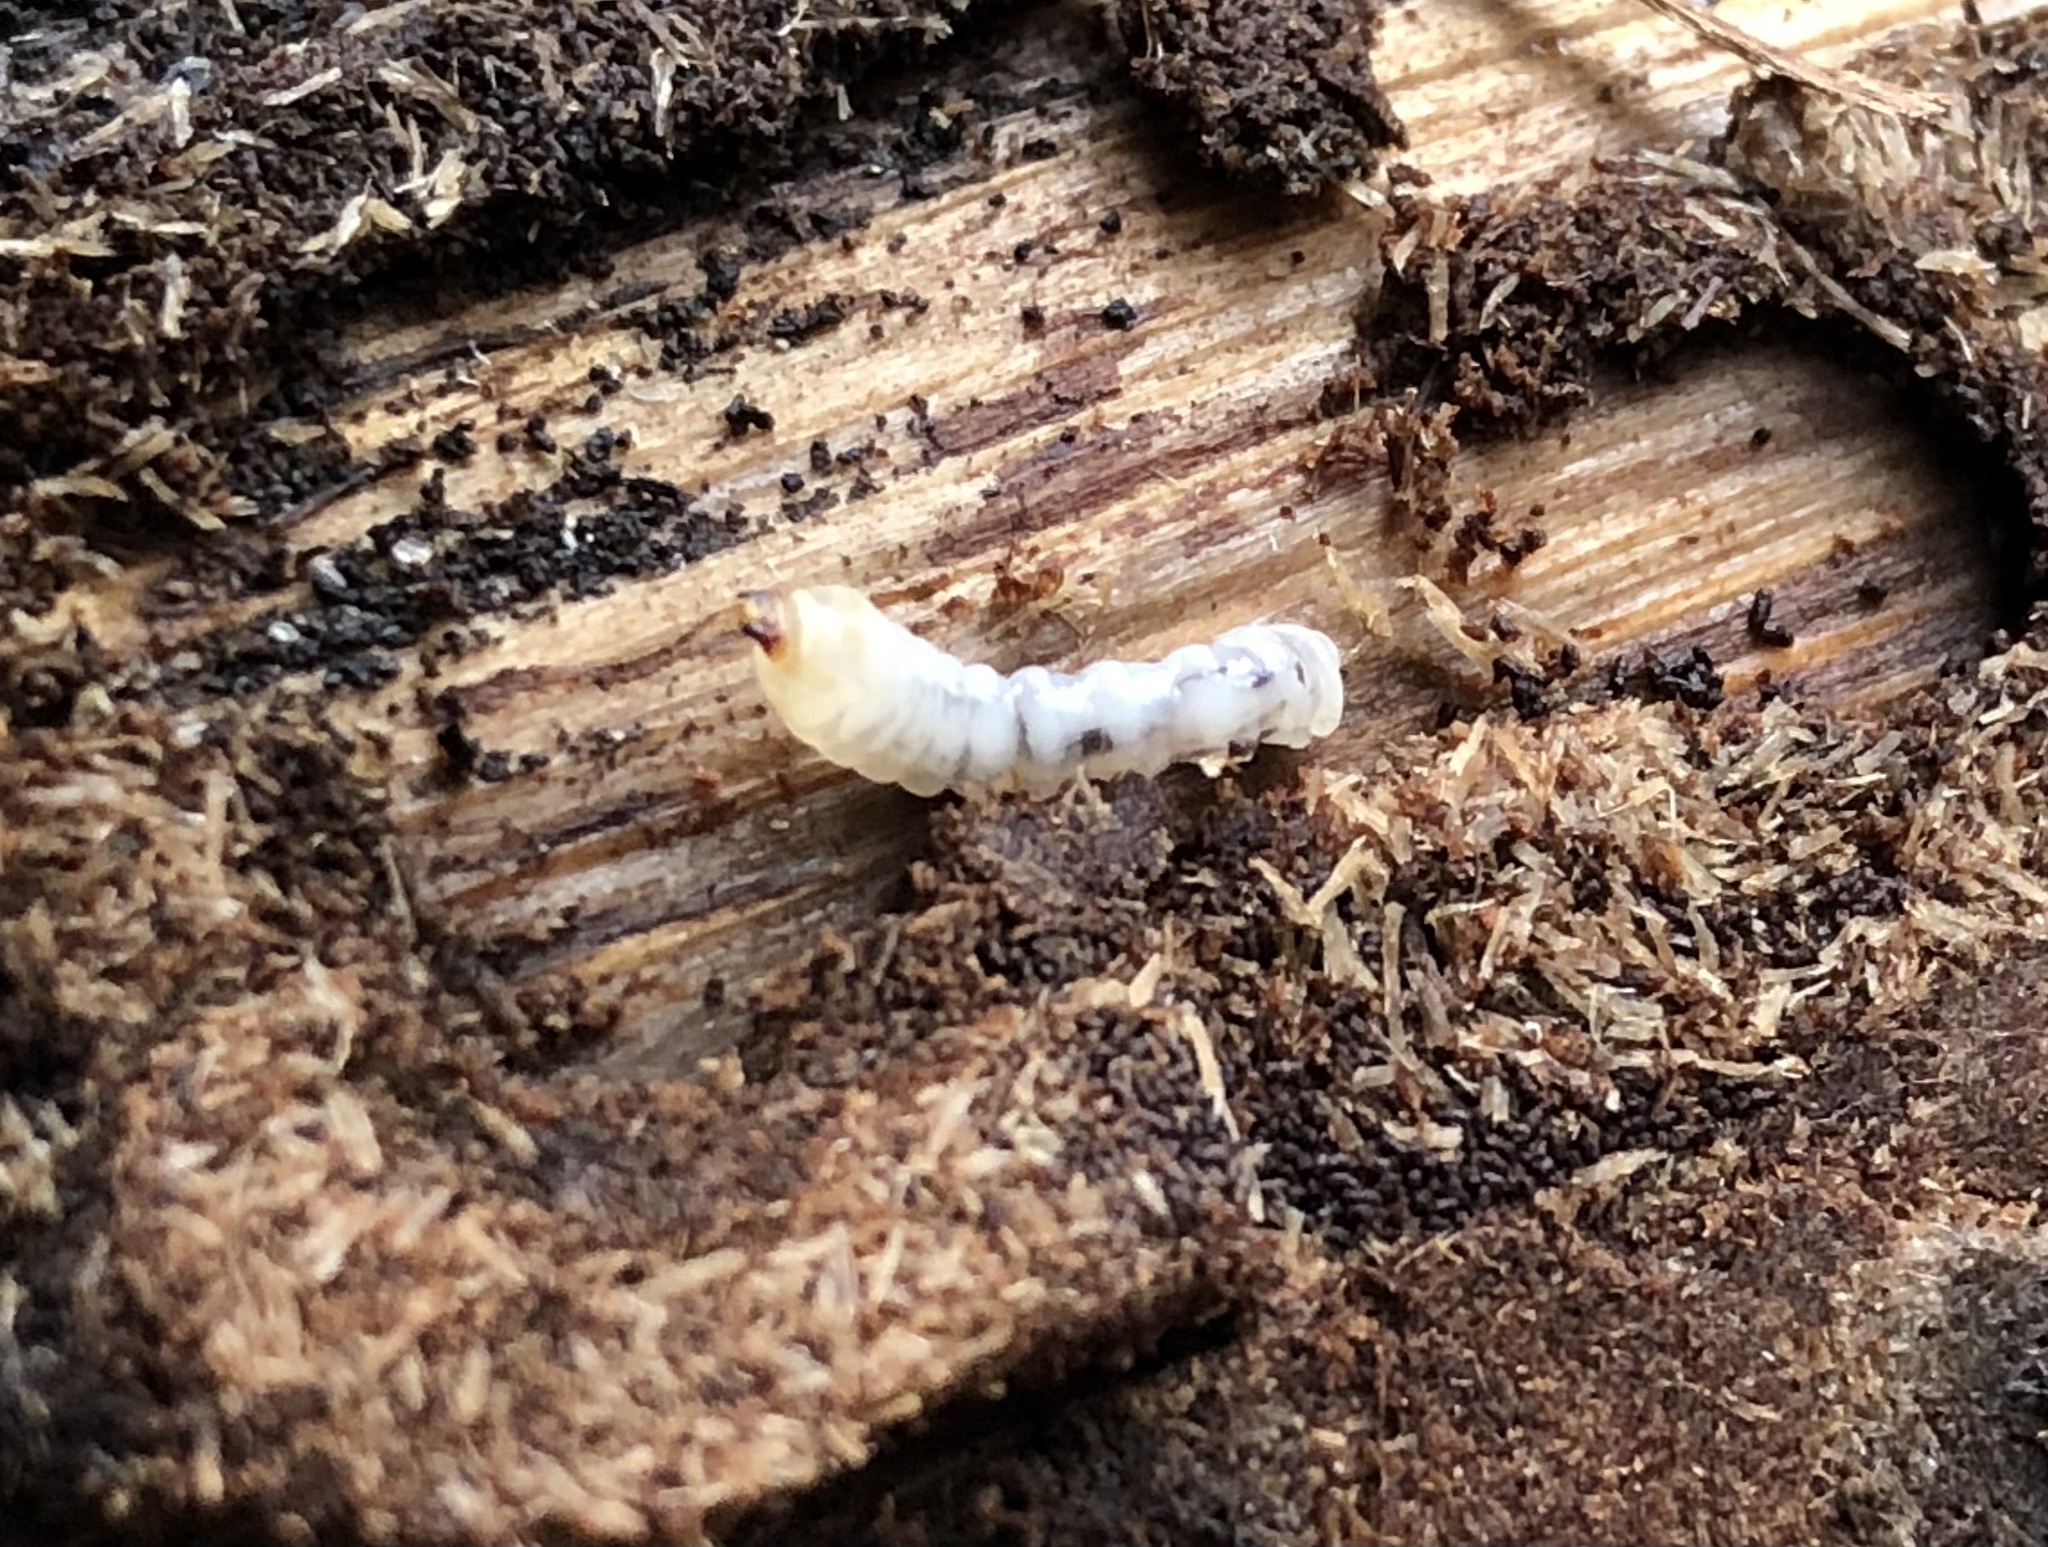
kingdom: Animalia
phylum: Arthropoda
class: Insecta
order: Coleoptera
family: Cerambycidae
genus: Rhagium
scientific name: Rhagium inquisitor
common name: Ribbed pine borer
